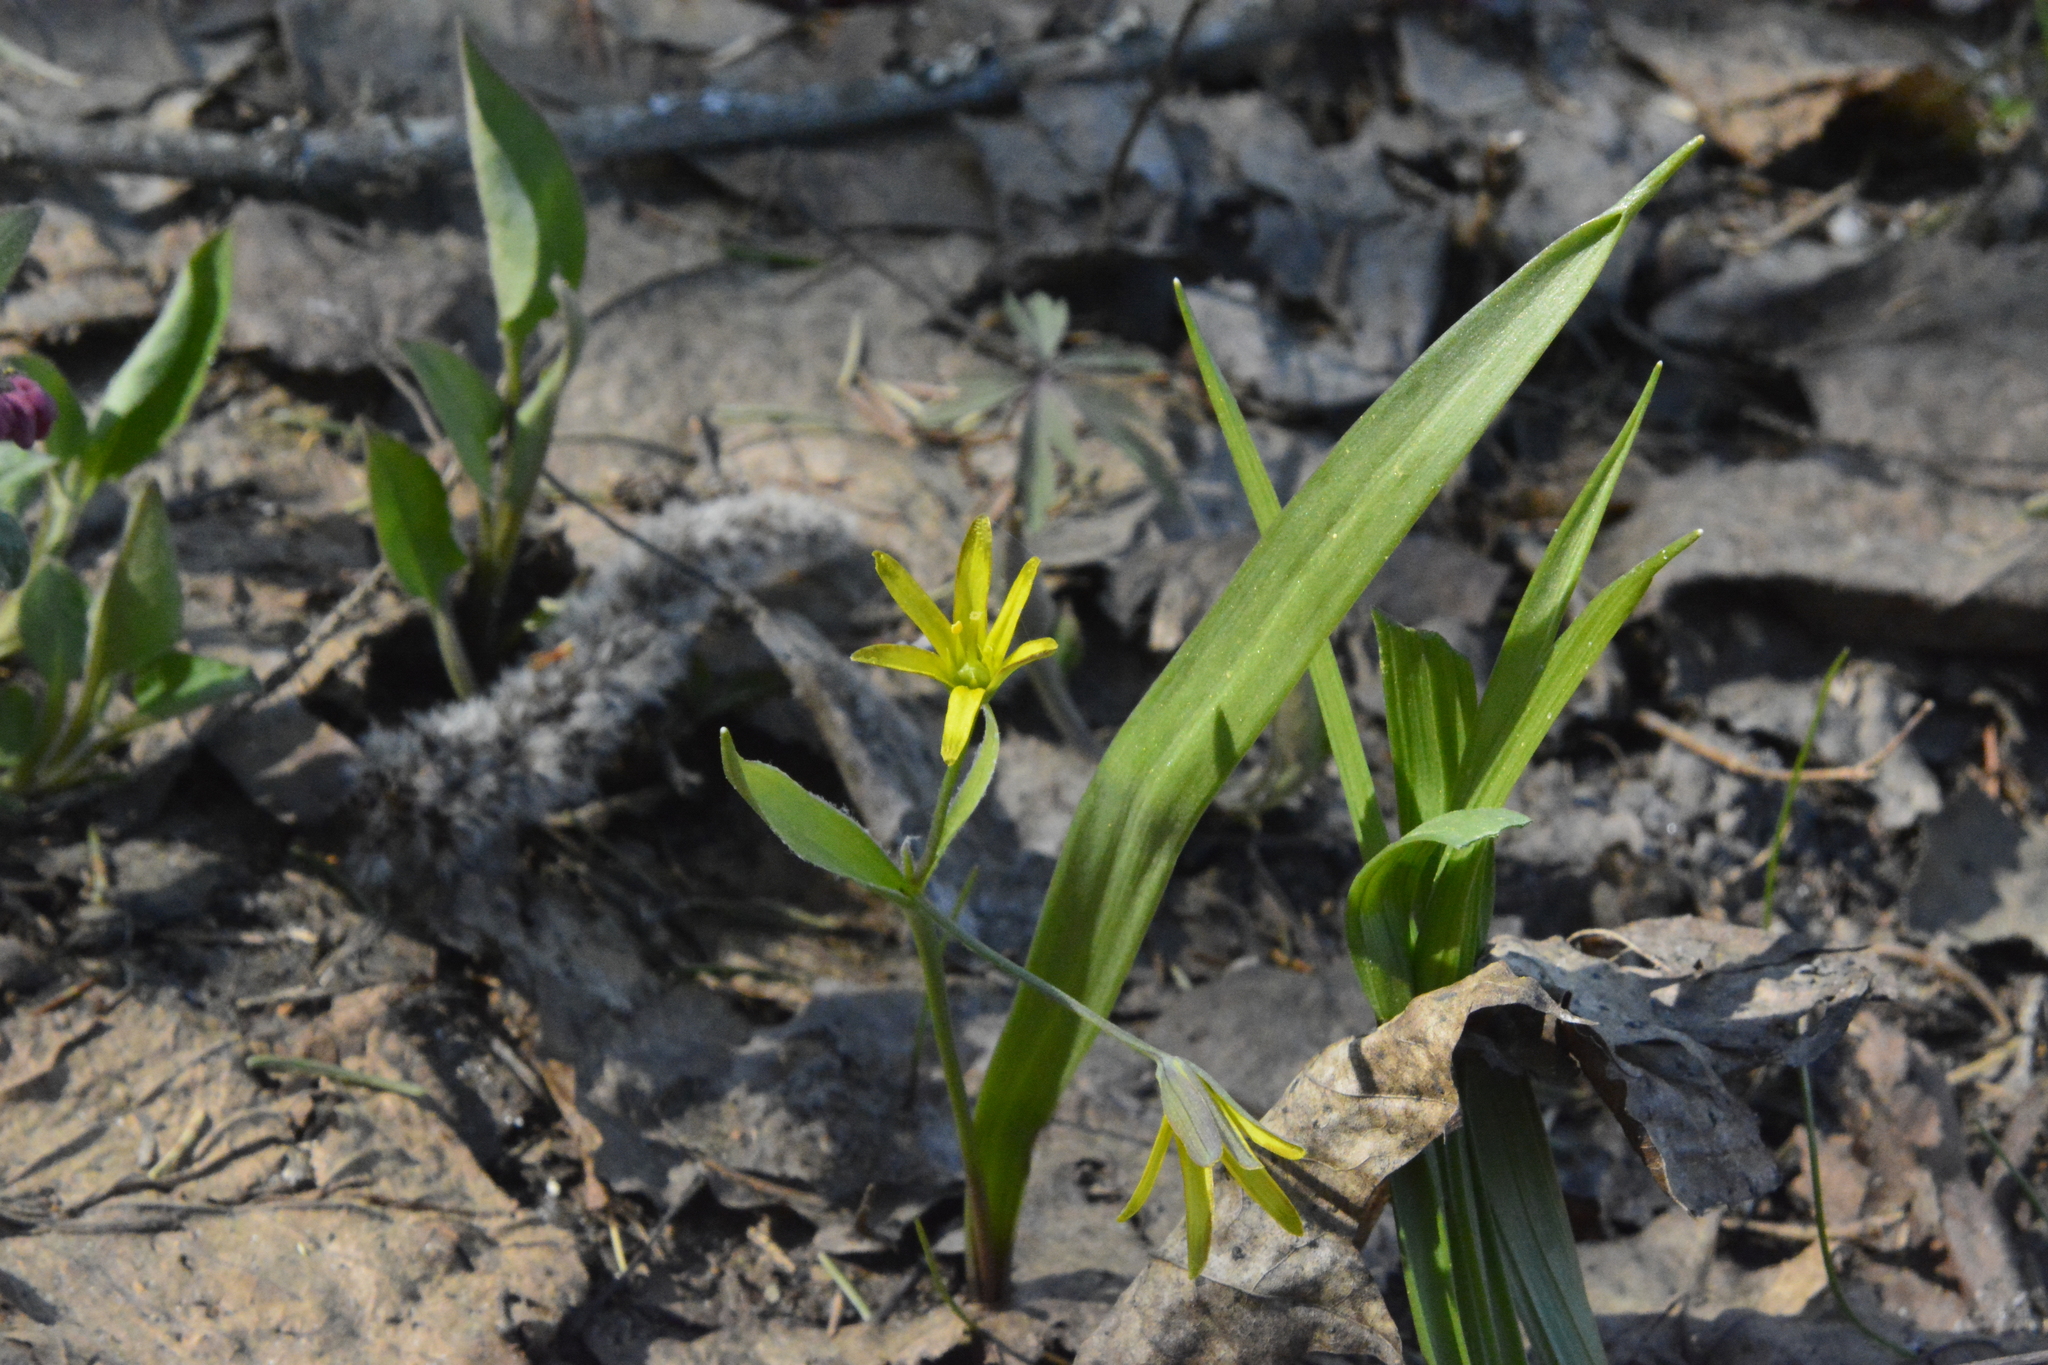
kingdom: Plantae
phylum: Tracheophyta
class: Liliopsida
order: Liliales
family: Liliaceae
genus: Gagea
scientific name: Gagea lutea
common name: Yellow star-of-bethlehem
